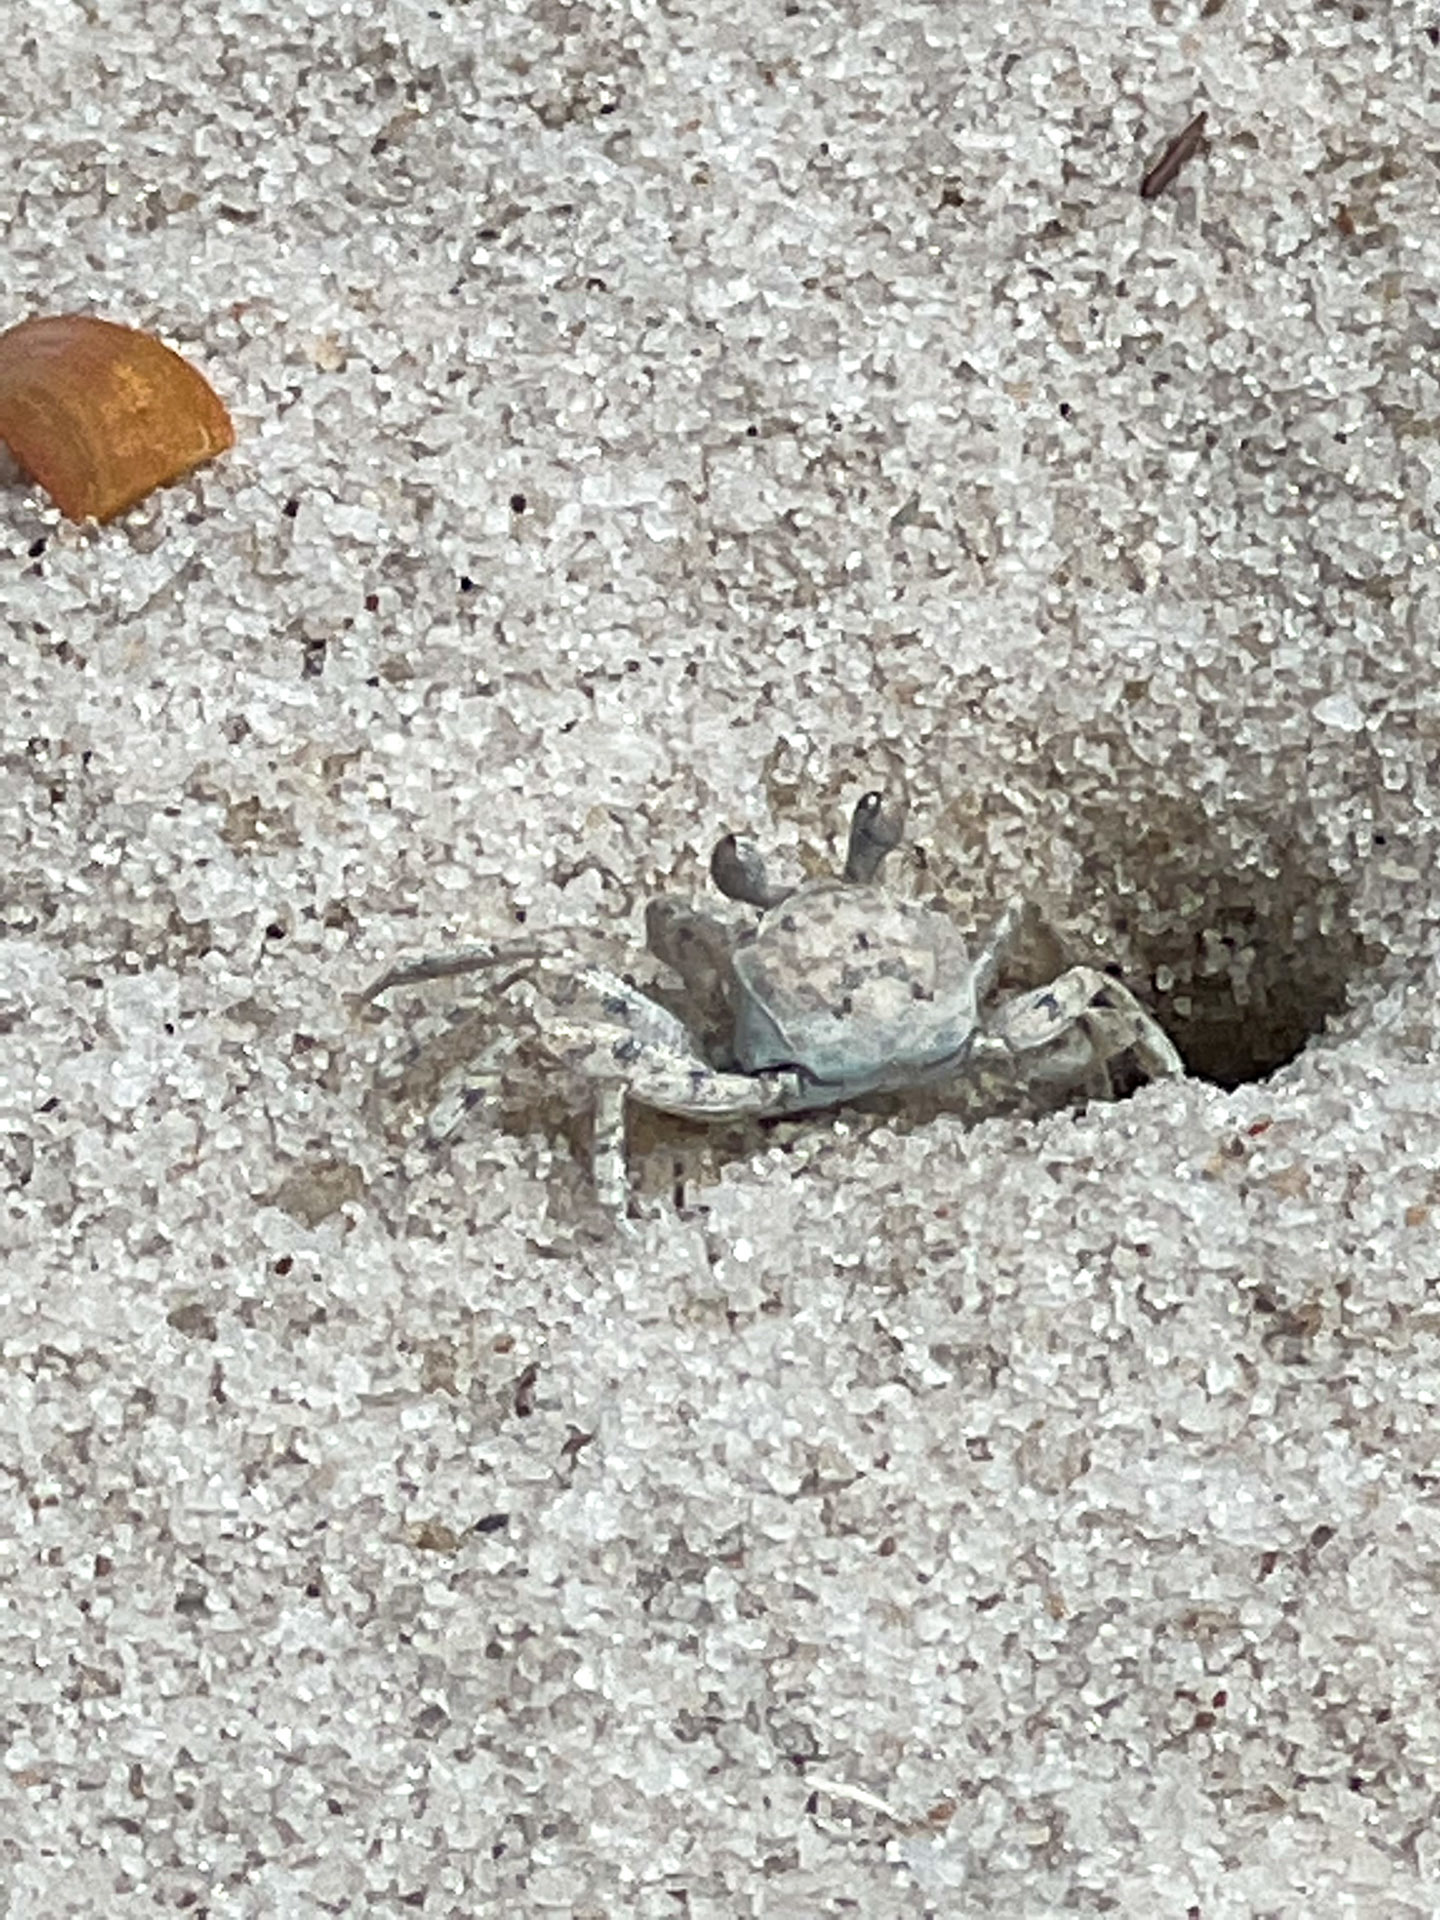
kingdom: Animalia
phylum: Arthropoda
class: Malacostraca
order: Decapoda
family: Ocypodidae
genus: Ocypode
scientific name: Ocypode quadrata
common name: Ghost crab
